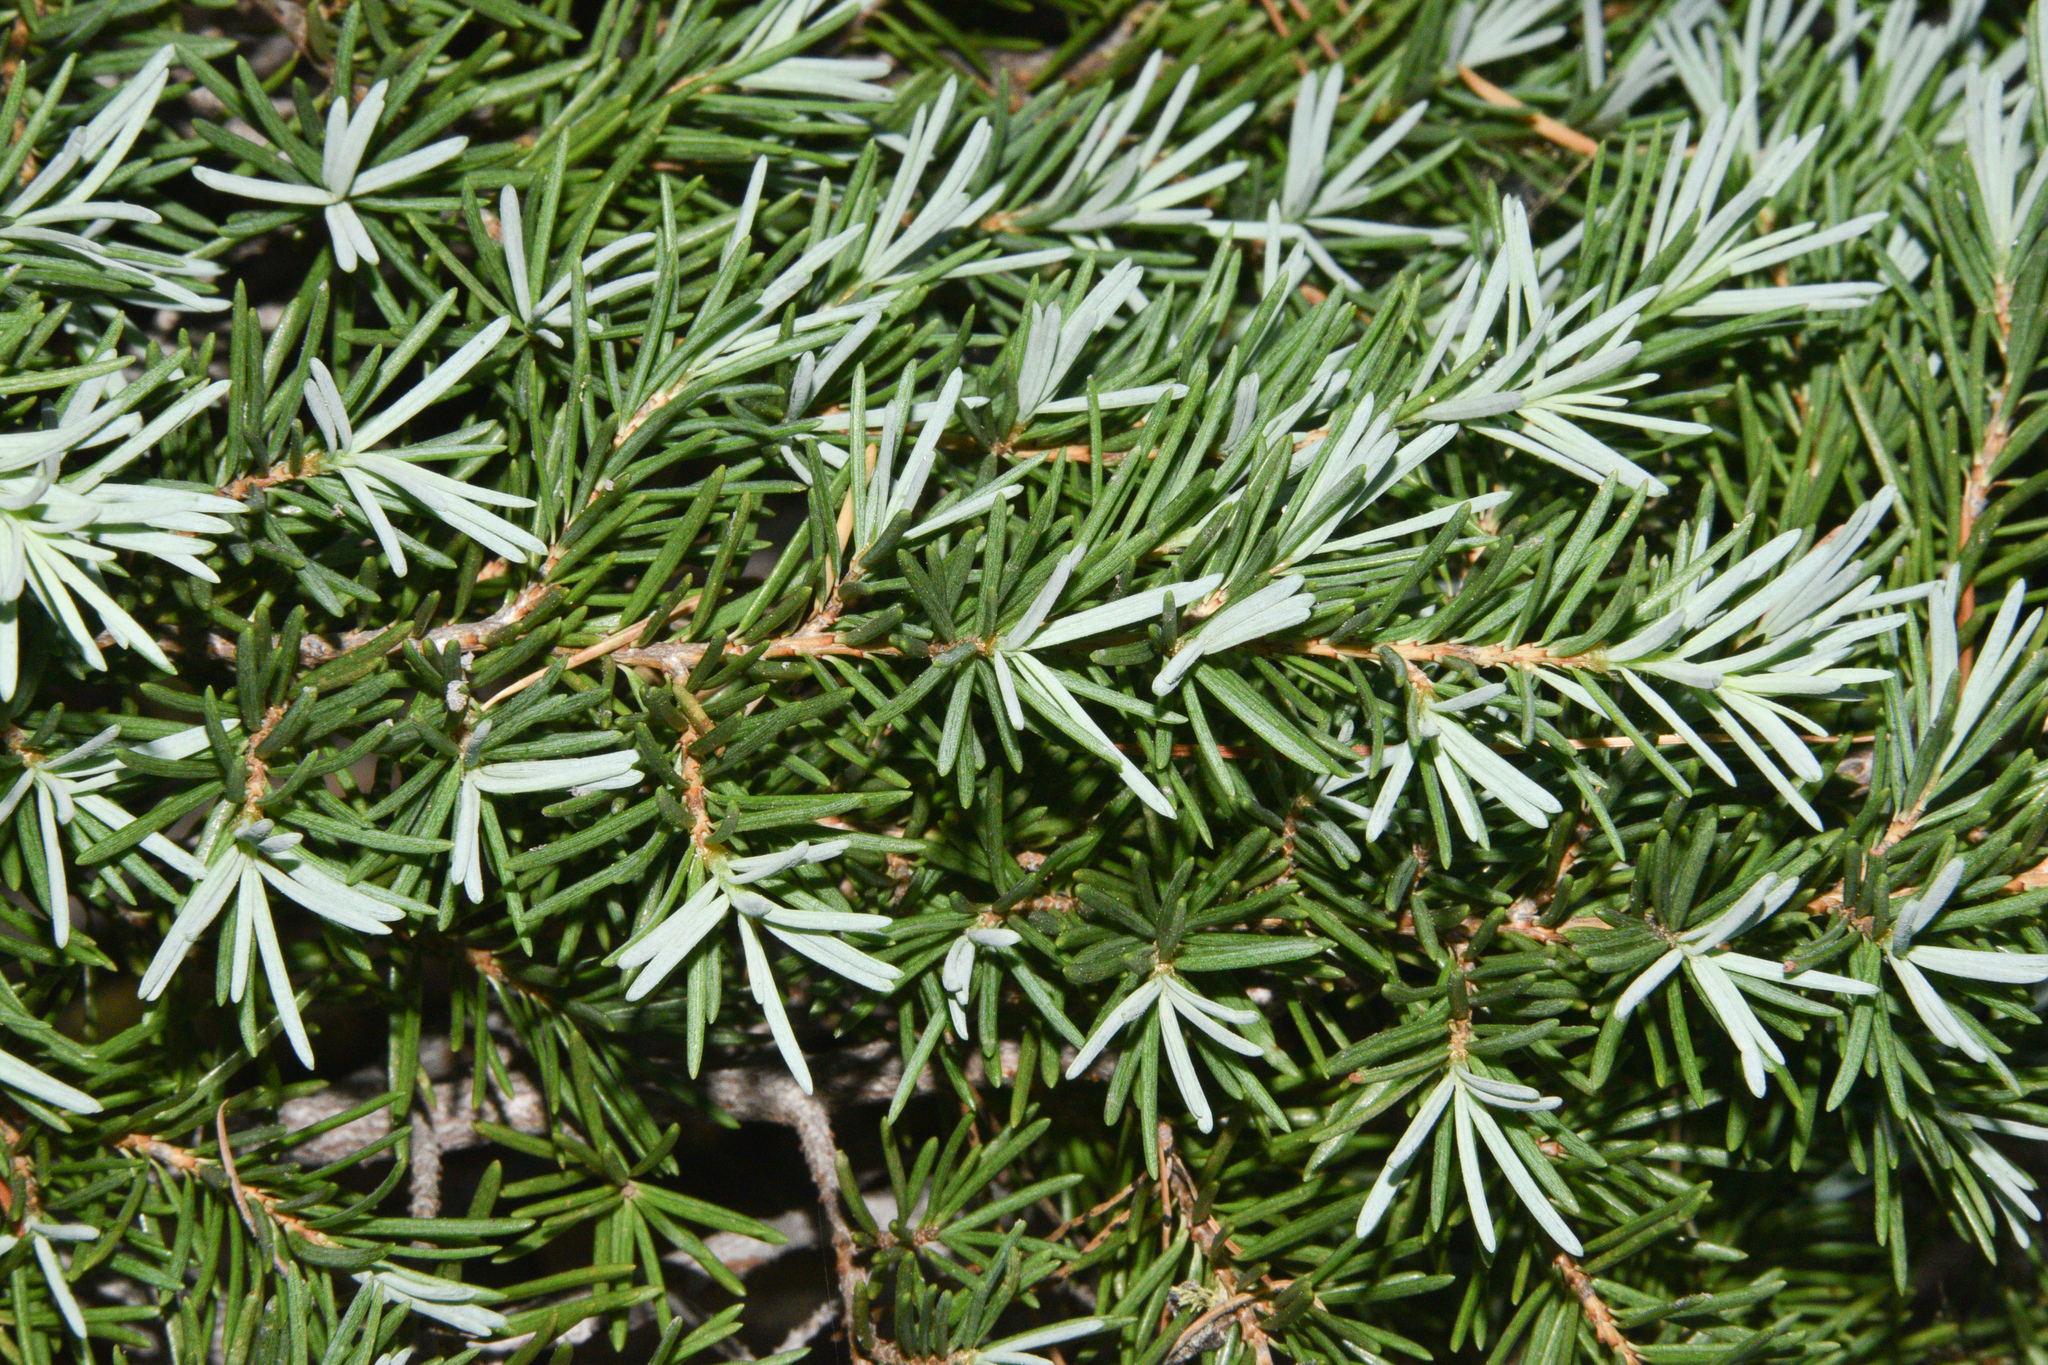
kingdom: Plantae
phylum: Tracheophyta
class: Pinopsida
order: Pinales
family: Pinaceae
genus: Tsuga
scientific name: Tsuga mertensiana
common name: Mountain hemlock
